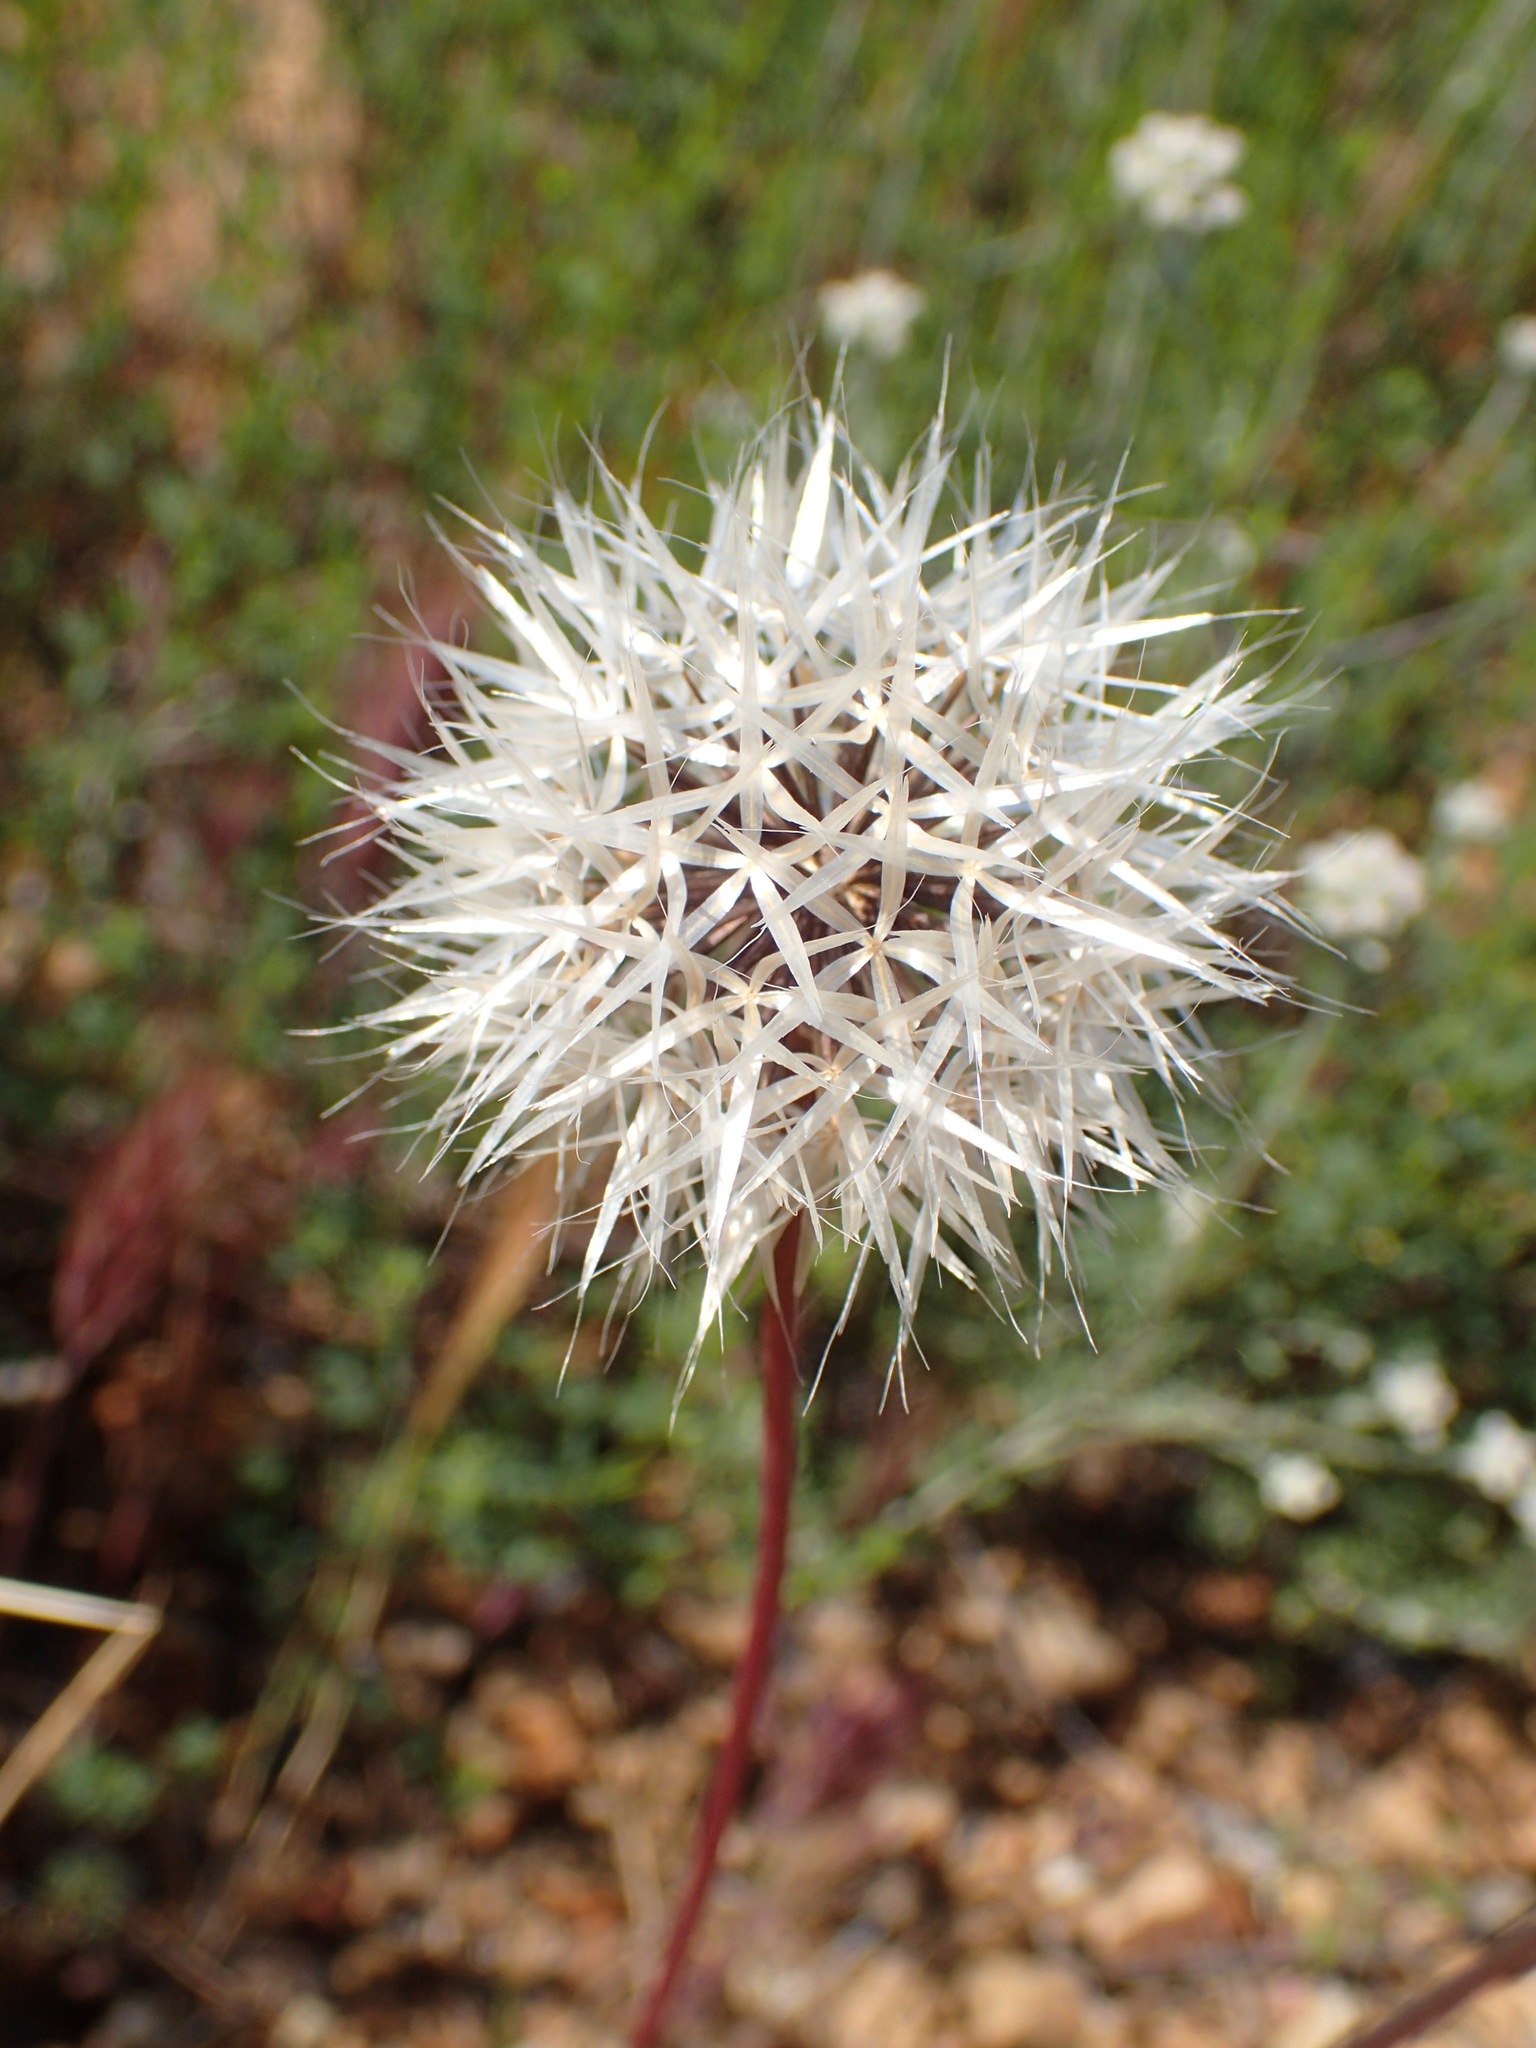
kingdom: Plantae
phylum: Tracheophyta
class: Magnoliopsida
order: Asterales
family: Asteraceae
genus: Microseris
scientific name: Microseris lindleyi
